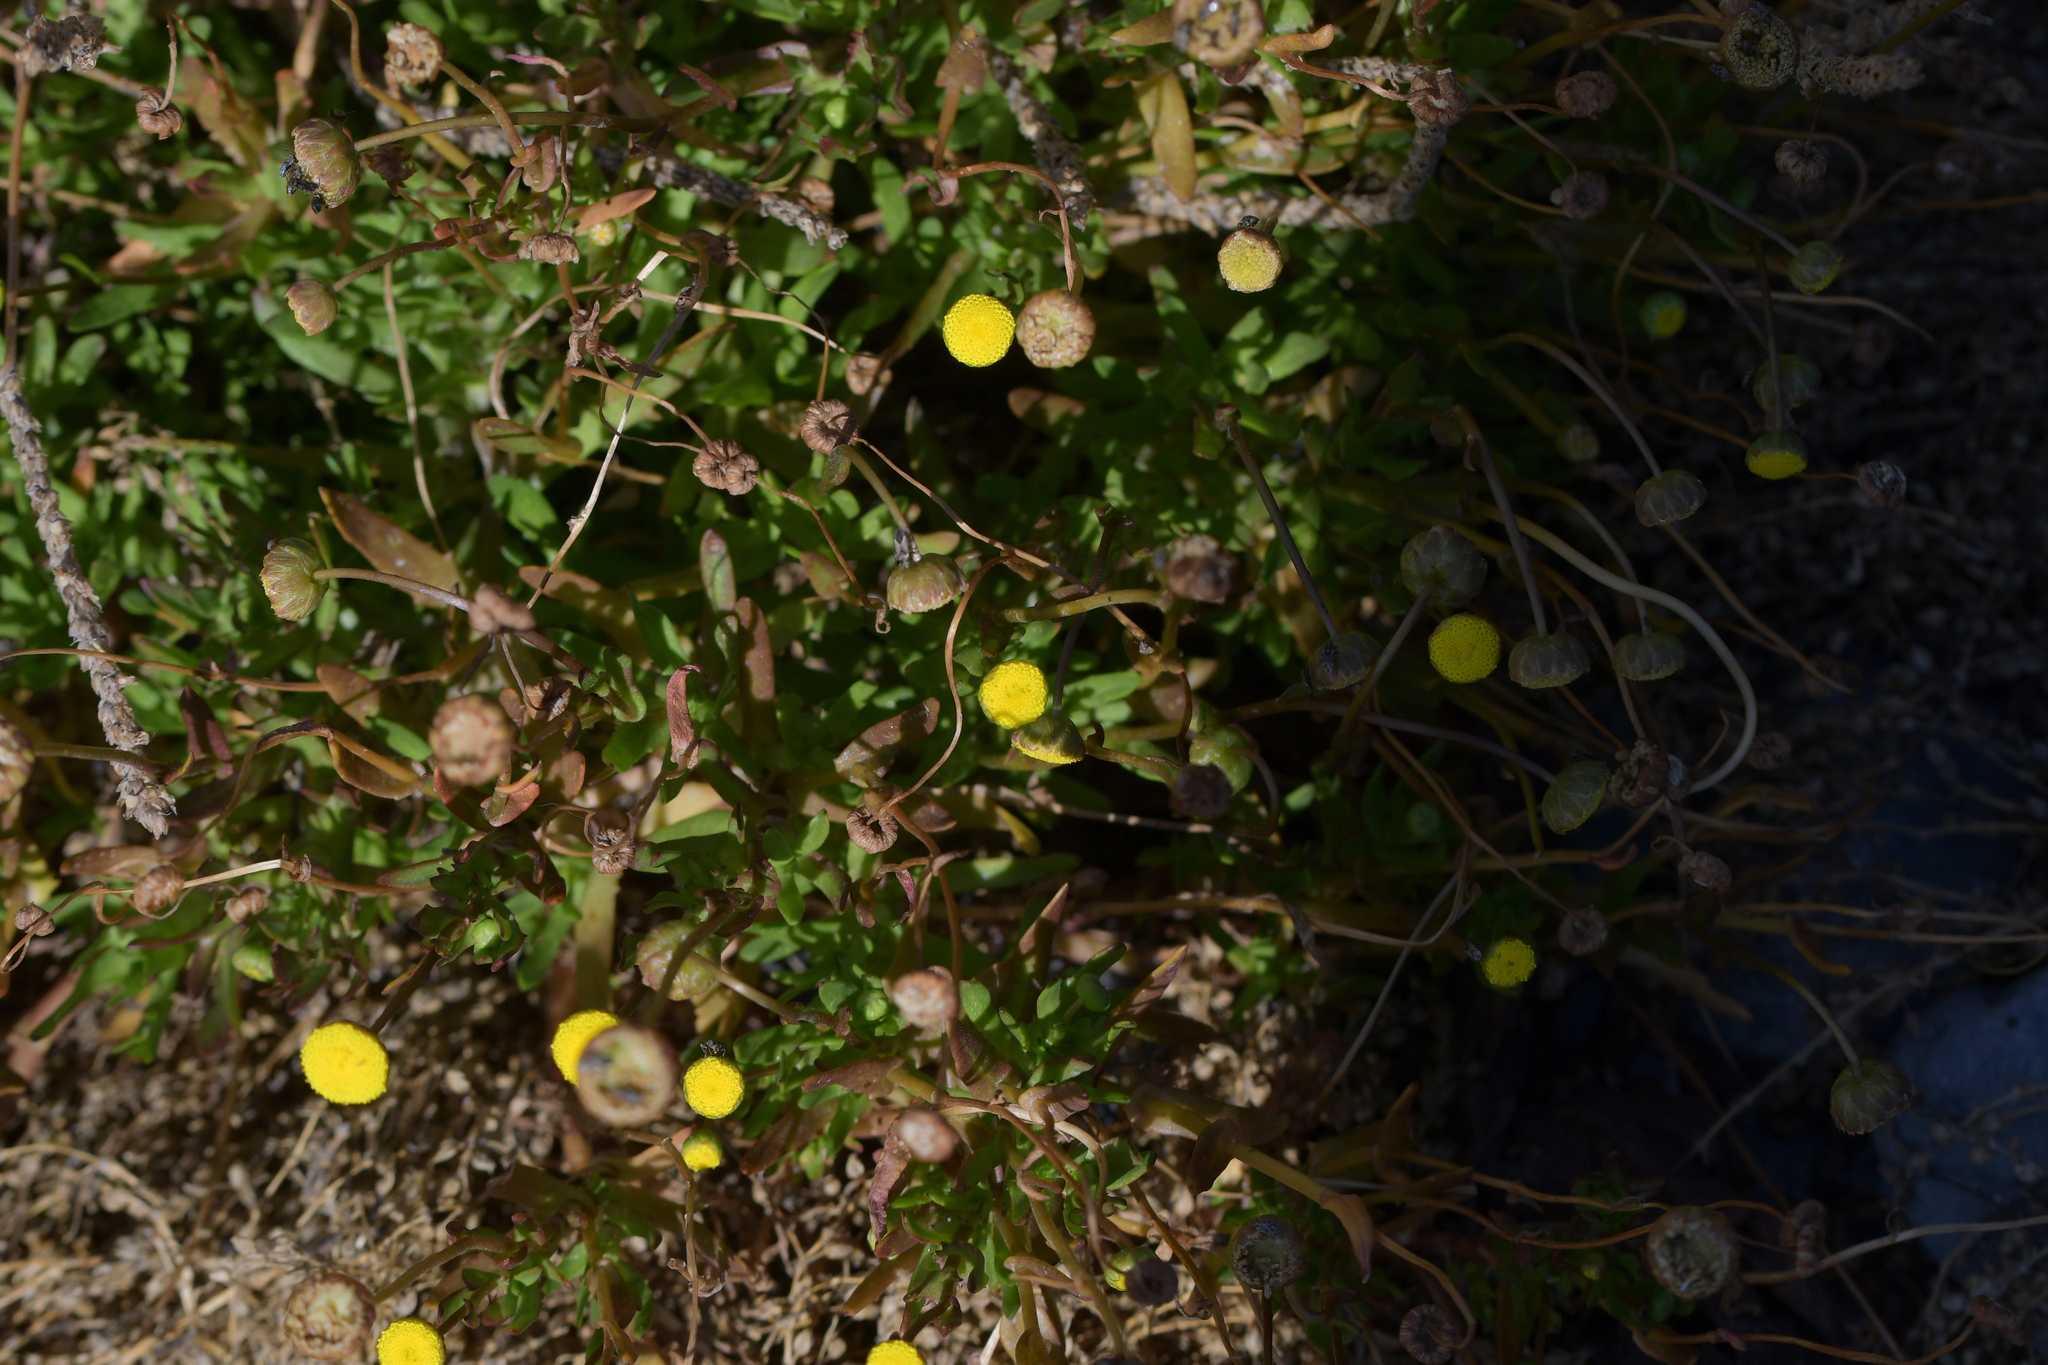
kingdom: Plantae
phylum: Tracheophyta
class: Magnoliopsida
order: Asterales
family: Asteraceae
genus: Cotula
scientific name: Cotula coronopifolia
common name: Buttonweed
